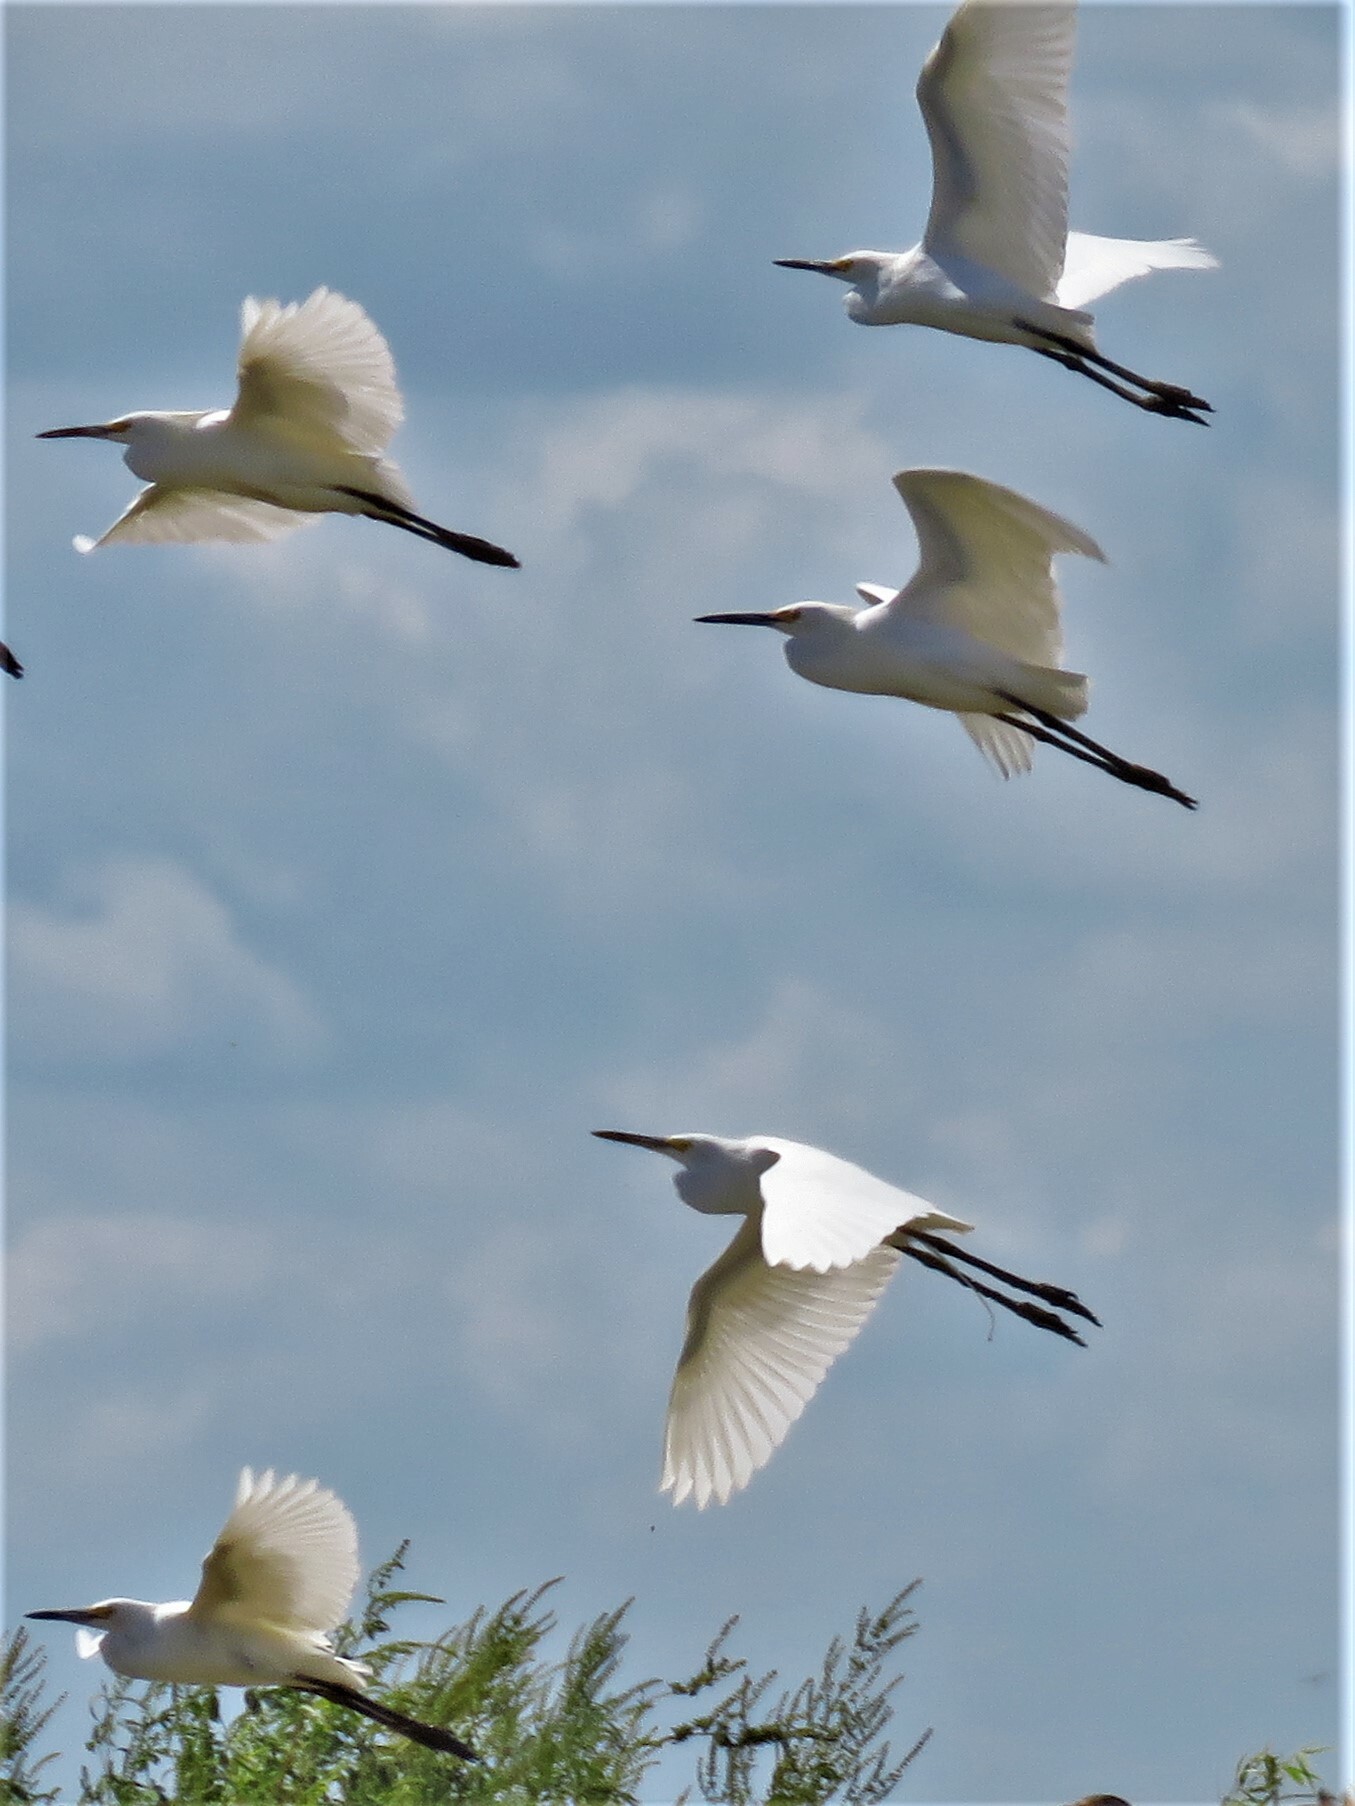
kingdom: Animalia
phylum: Chordata
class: Aves
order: Pelecaniformes
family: Ardeidae
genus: Egretta
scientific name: Egretta thula
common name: Snowy egret
